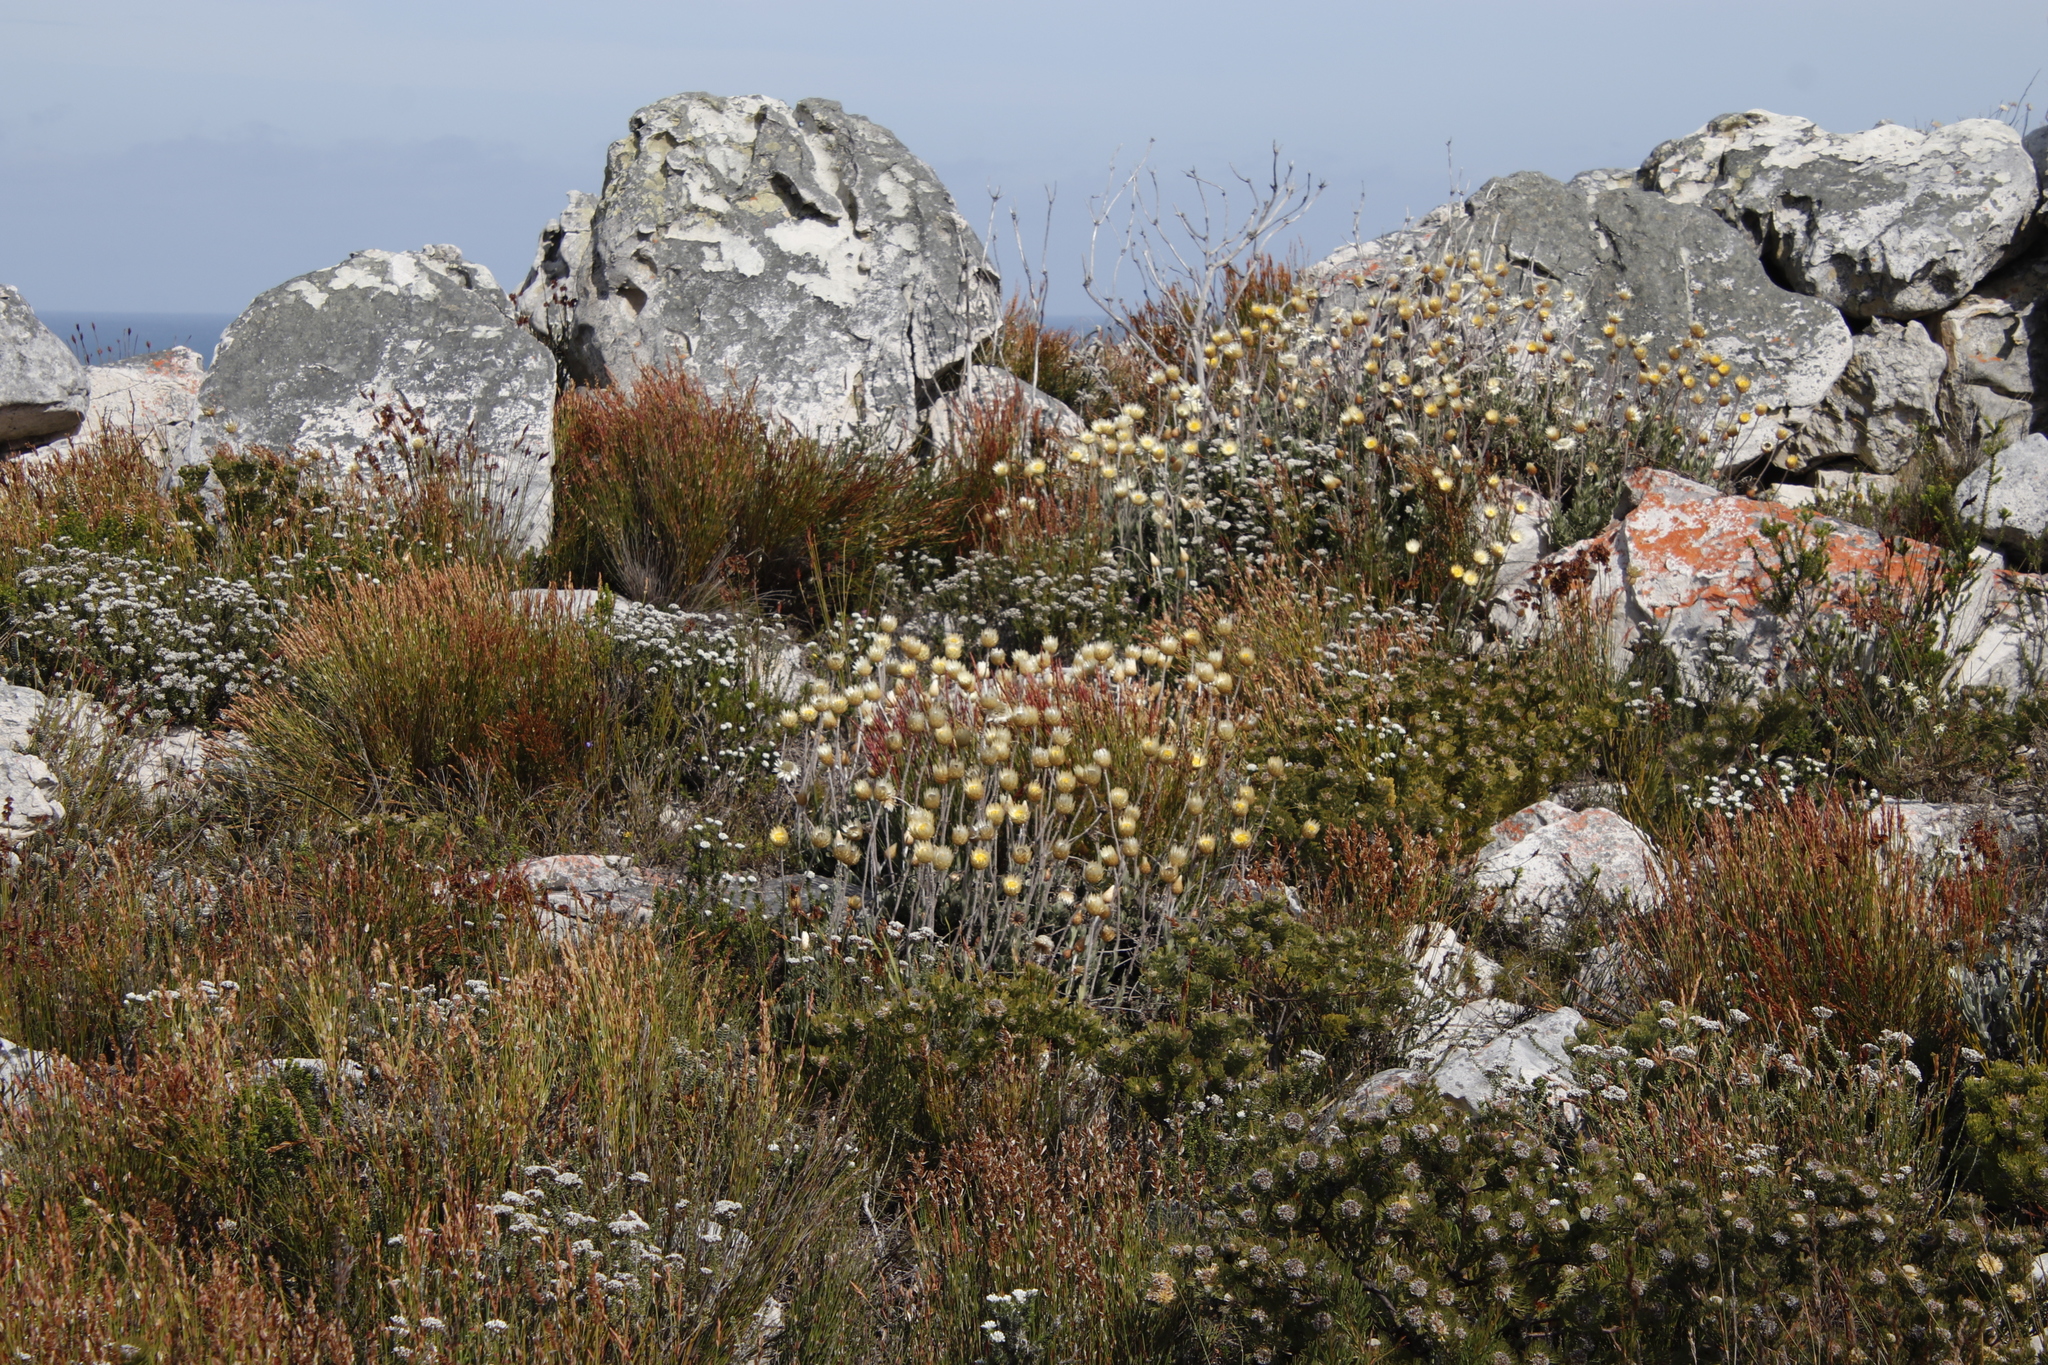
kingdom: Plantae
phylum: Tracheophyta
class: Magnoliopsida
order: Asterales
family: Asteraceae
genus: Syncarpha
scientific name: Syncarpha speciosissima
